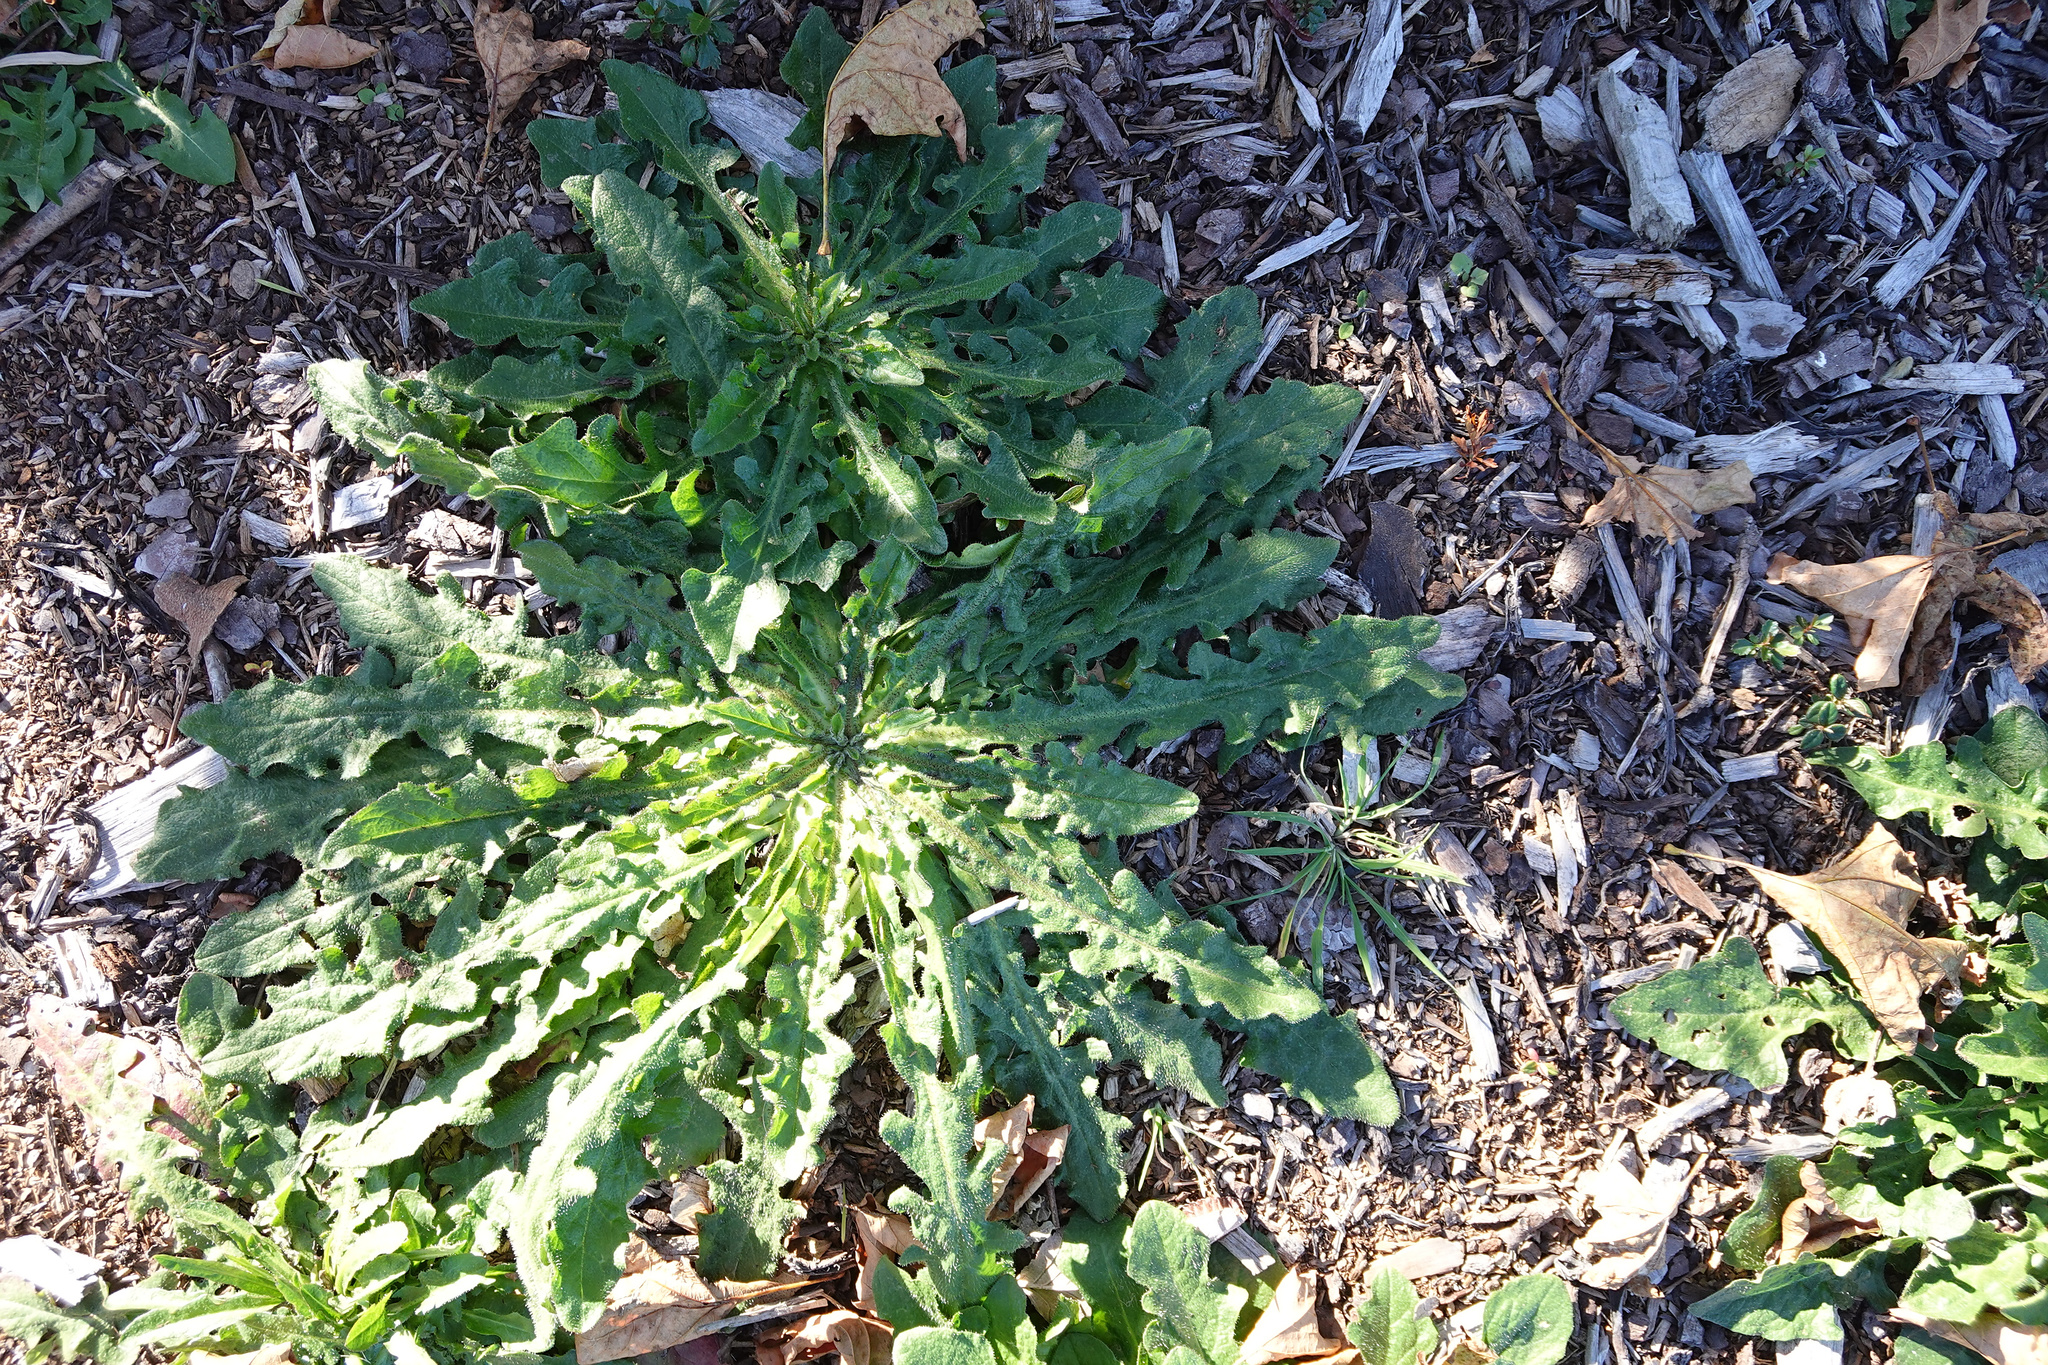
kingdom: Plantae
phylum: Tracheophyta
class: Magnoliopsida
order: Asterales
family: Asteraceae
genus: Hypochaeris
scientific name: Hypochaeris radicata
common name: Flatweed
